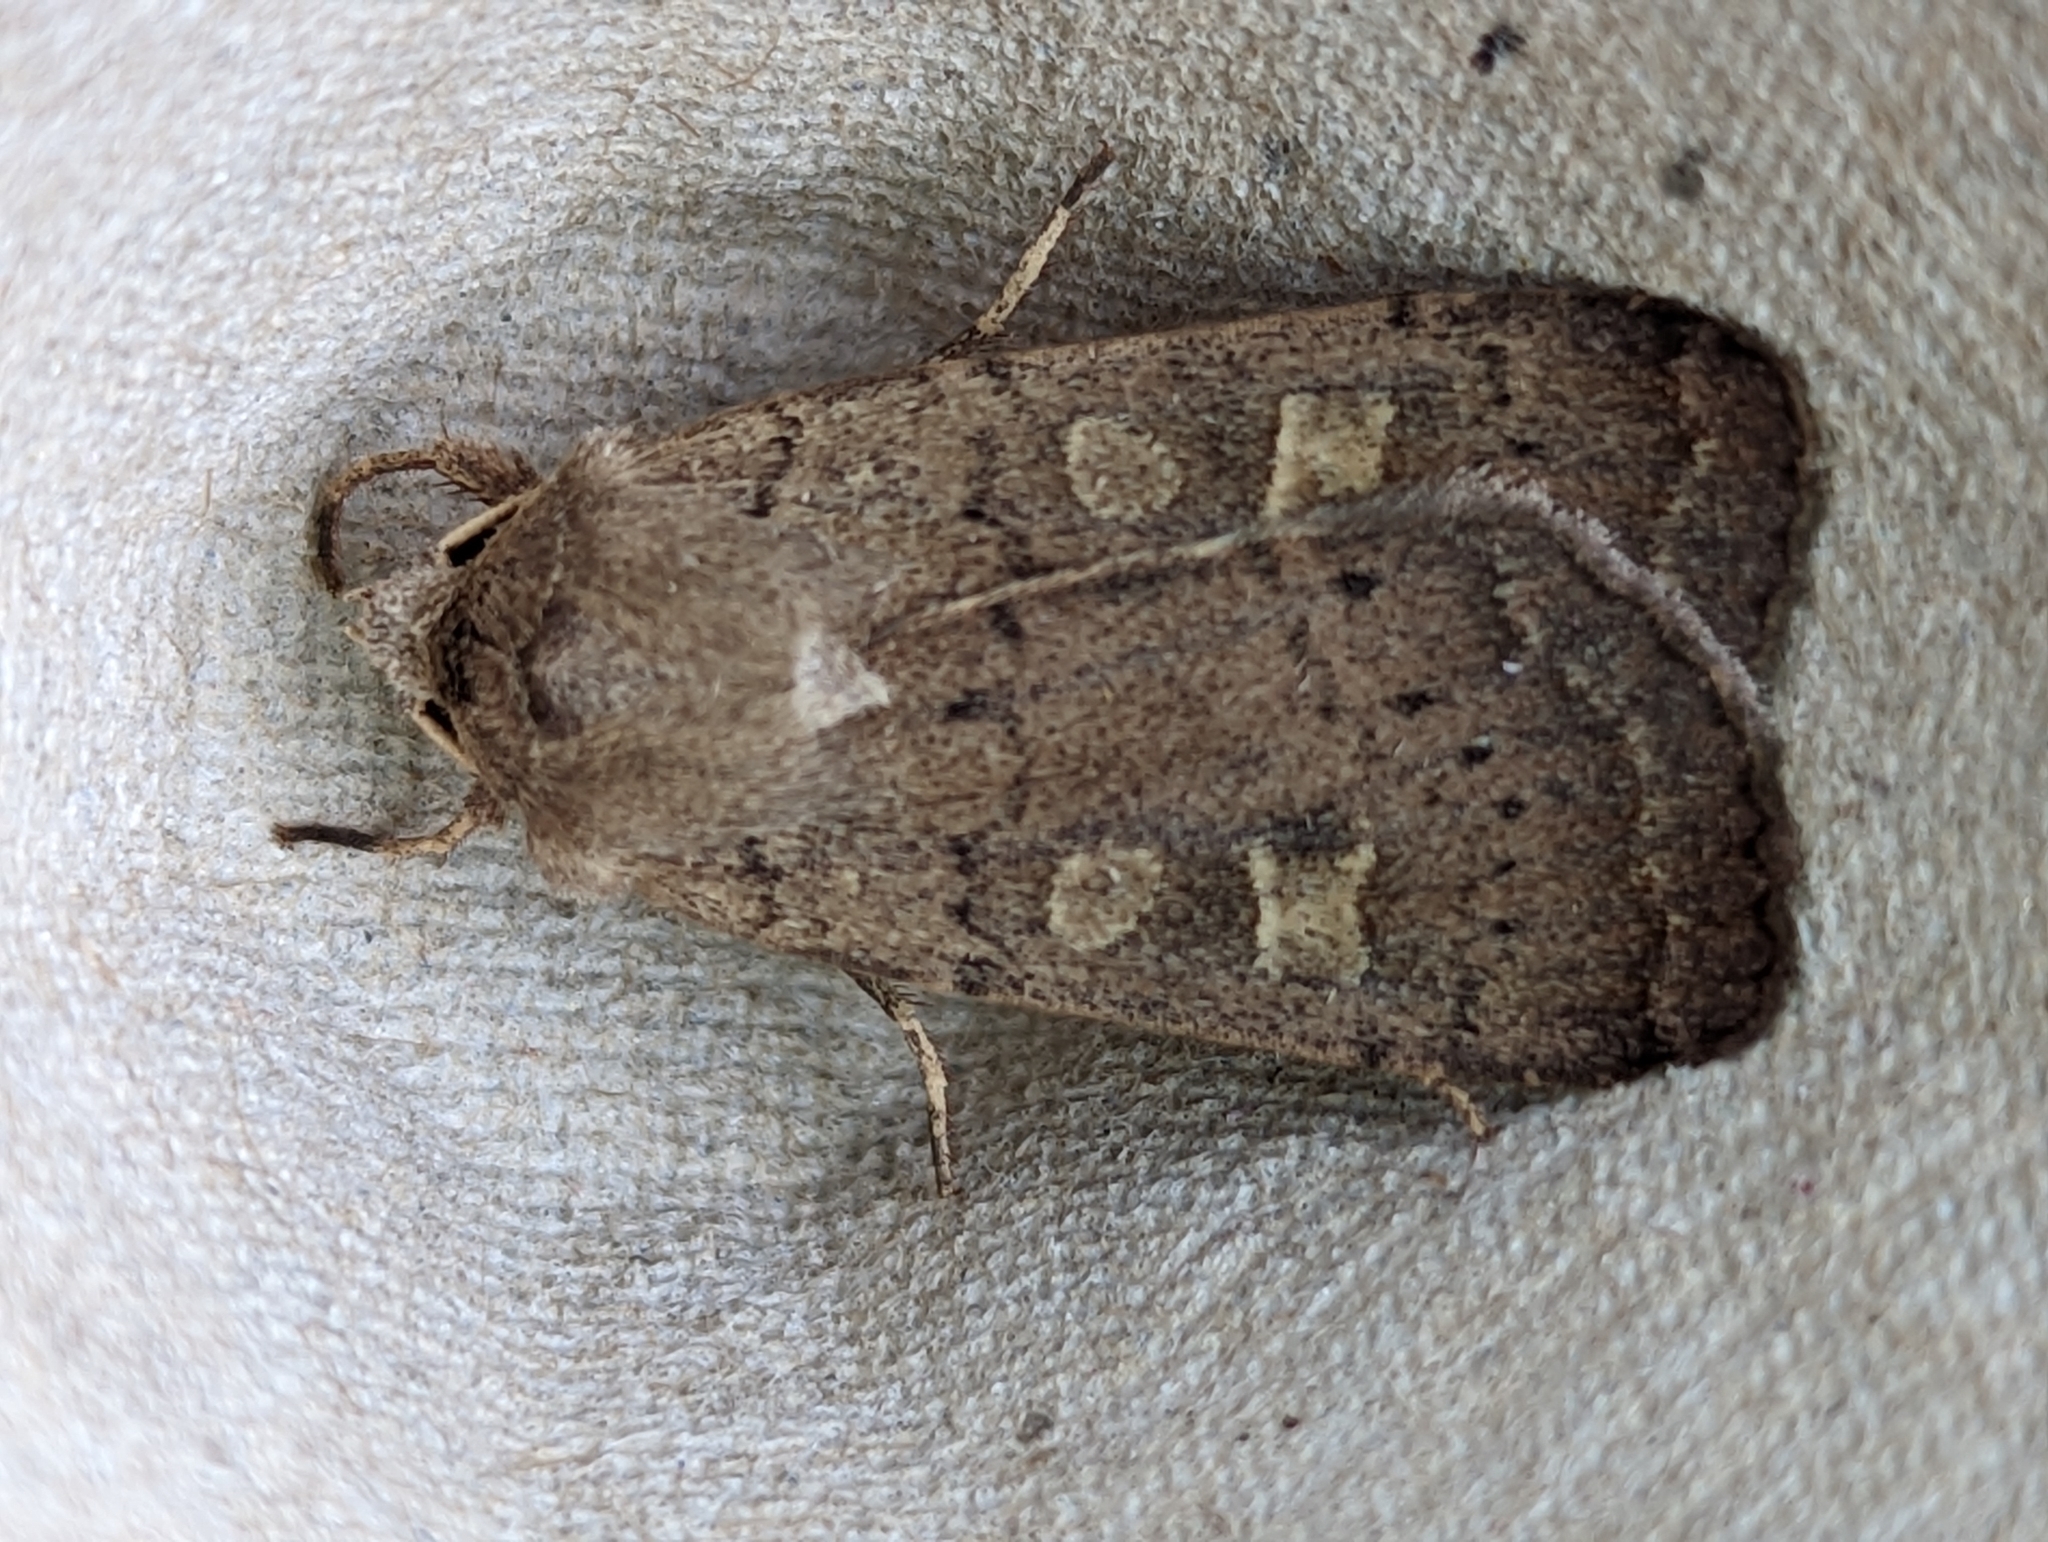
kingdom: Animalia
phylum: Arthropoda
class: Insecta
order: Lepidoptera
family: Noctuidae
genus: Xestia
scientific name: Xestia xanthographa
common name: Square-spot rustic
